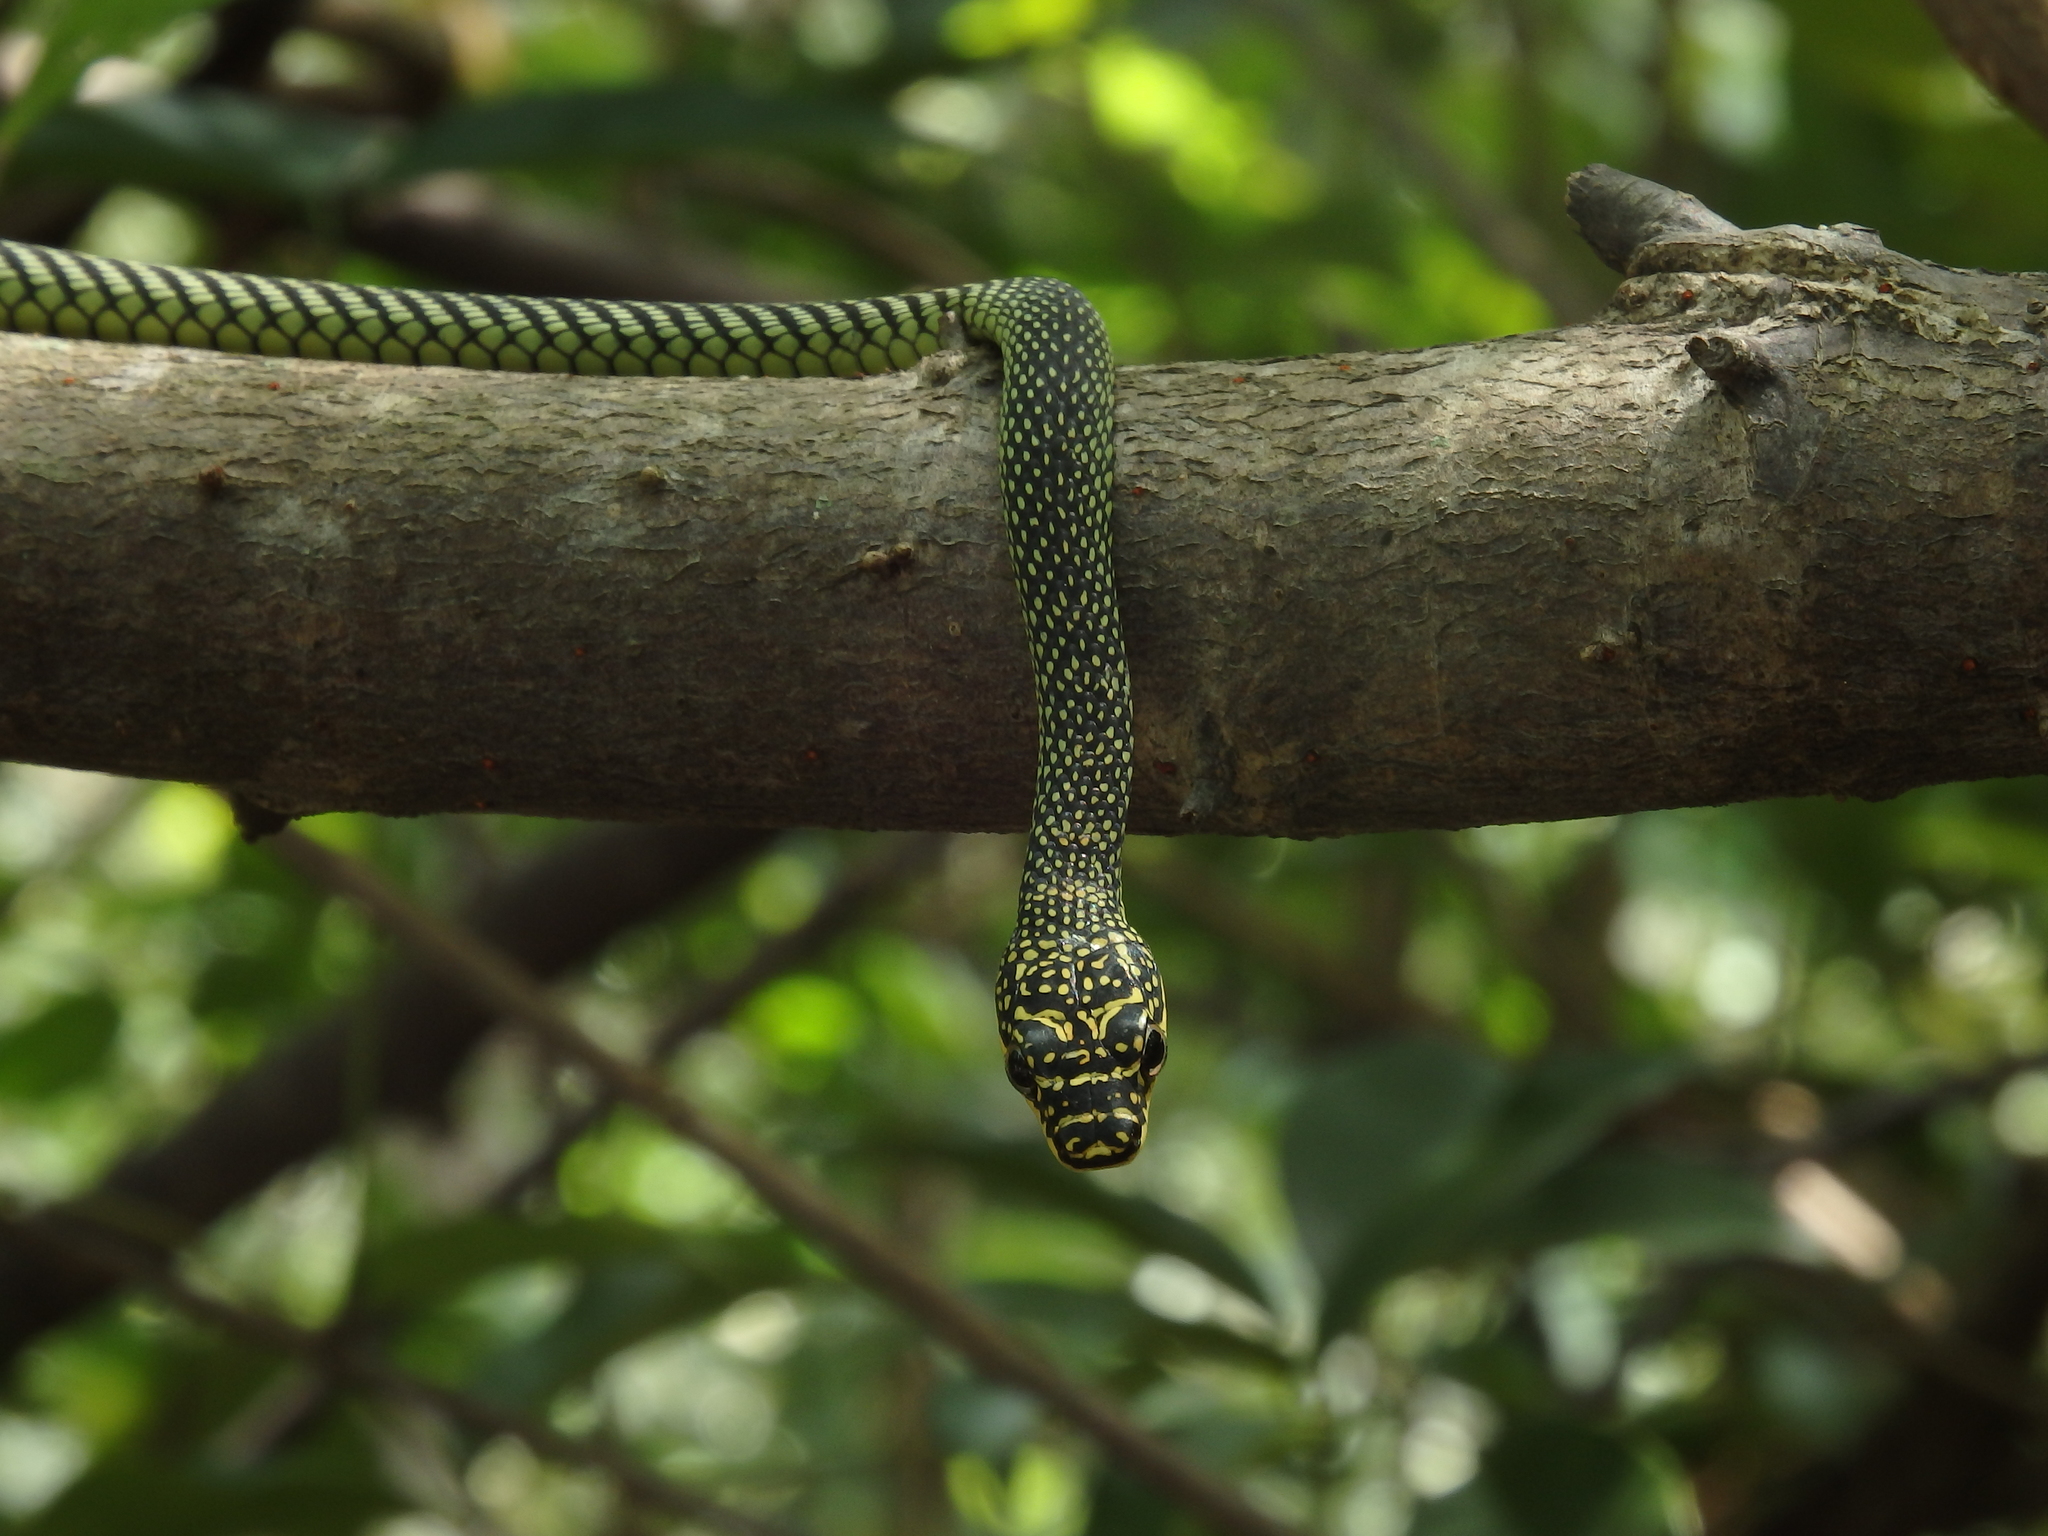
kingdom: Animalia
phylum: Chordata
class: Squamata
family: Colubridae
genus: Chrysopelea
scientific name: Chrysopelea paradisi
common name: Paradise tree snake
